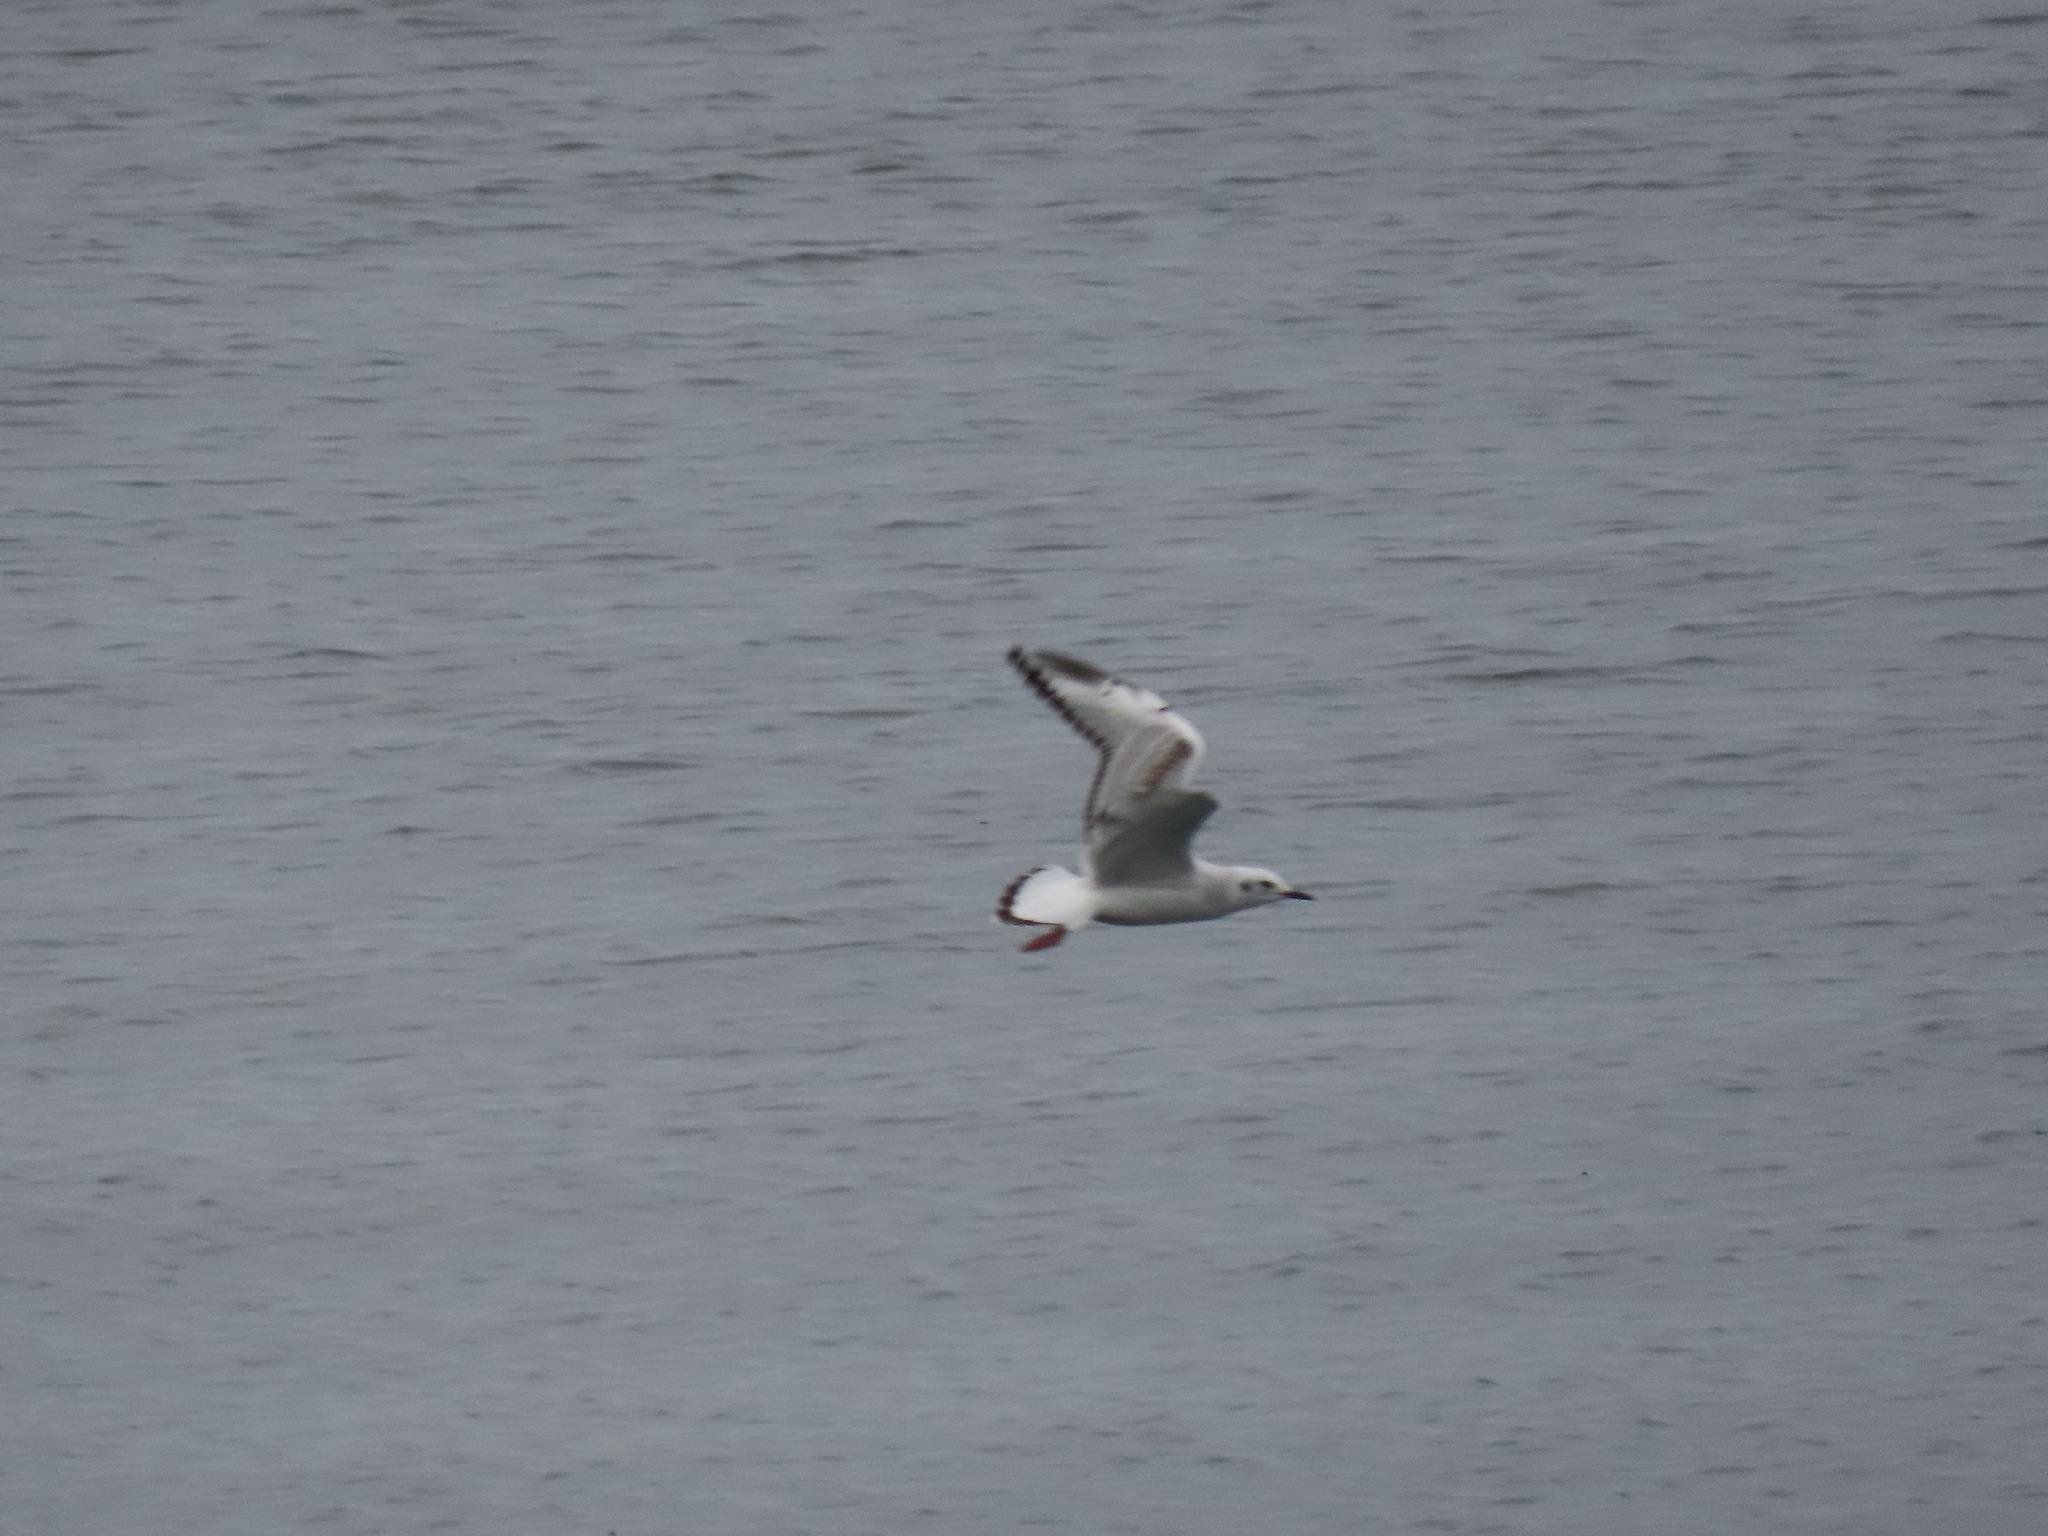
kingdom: Animalia
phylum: Chordata
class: Aves
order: Charadriiformes
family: Laridae
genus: Chroicocephalus
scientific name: Chroicocephalus philadelphia
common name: Bonaparte's gull
